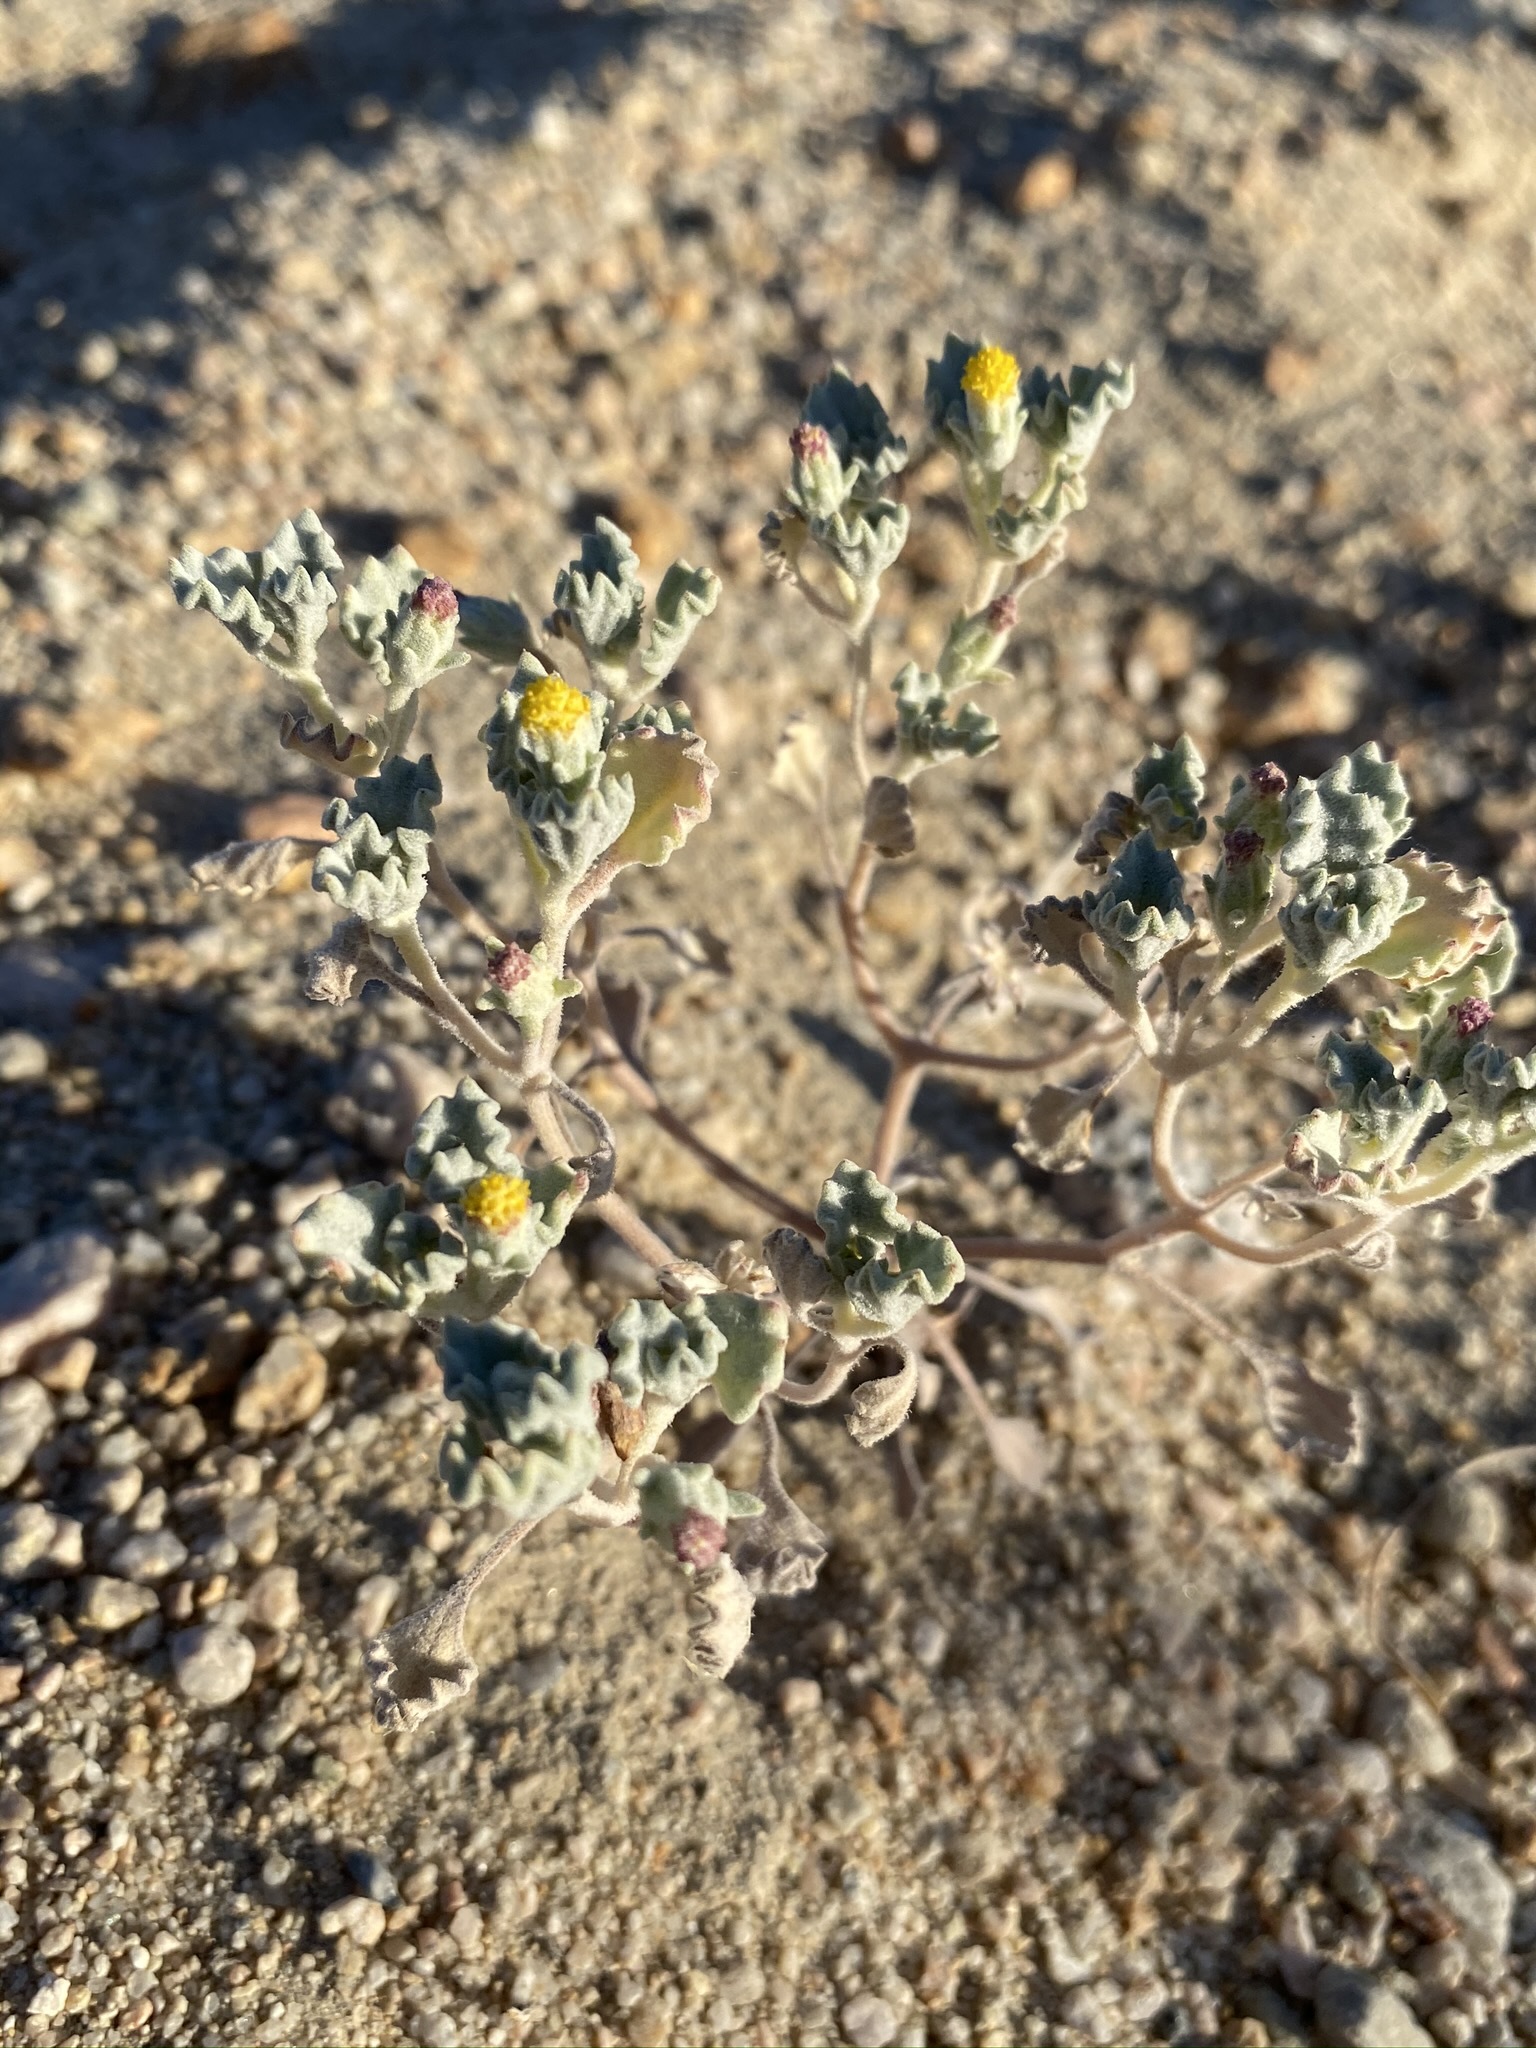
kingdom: Plantae
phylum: Tracheophyta
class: Magnoliopsida
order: Asterales
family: Asteraceae
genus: Psathyrotes
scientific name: Psathyrotes annua
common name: Mealy rosettes
